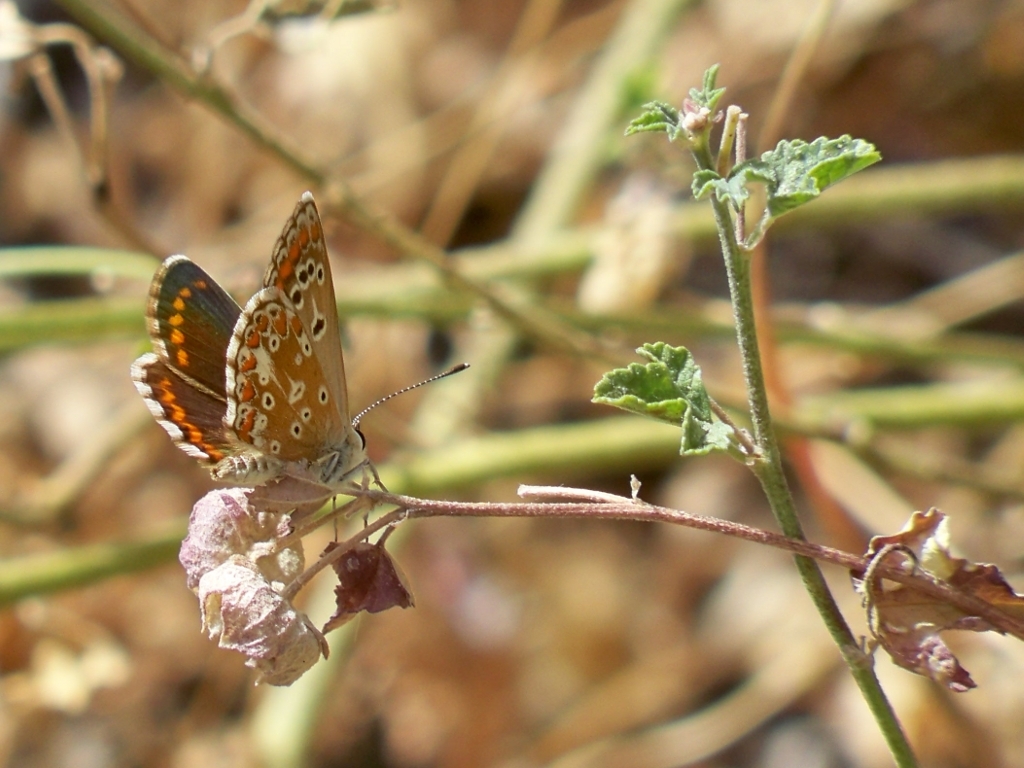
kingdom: Animalia
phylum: Arthropoda
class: Insecta
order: Lepidoptera
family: Lycaenidae
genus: Aricia
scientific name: Aricia cramera
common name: Eschscholtz´s brown  argus
